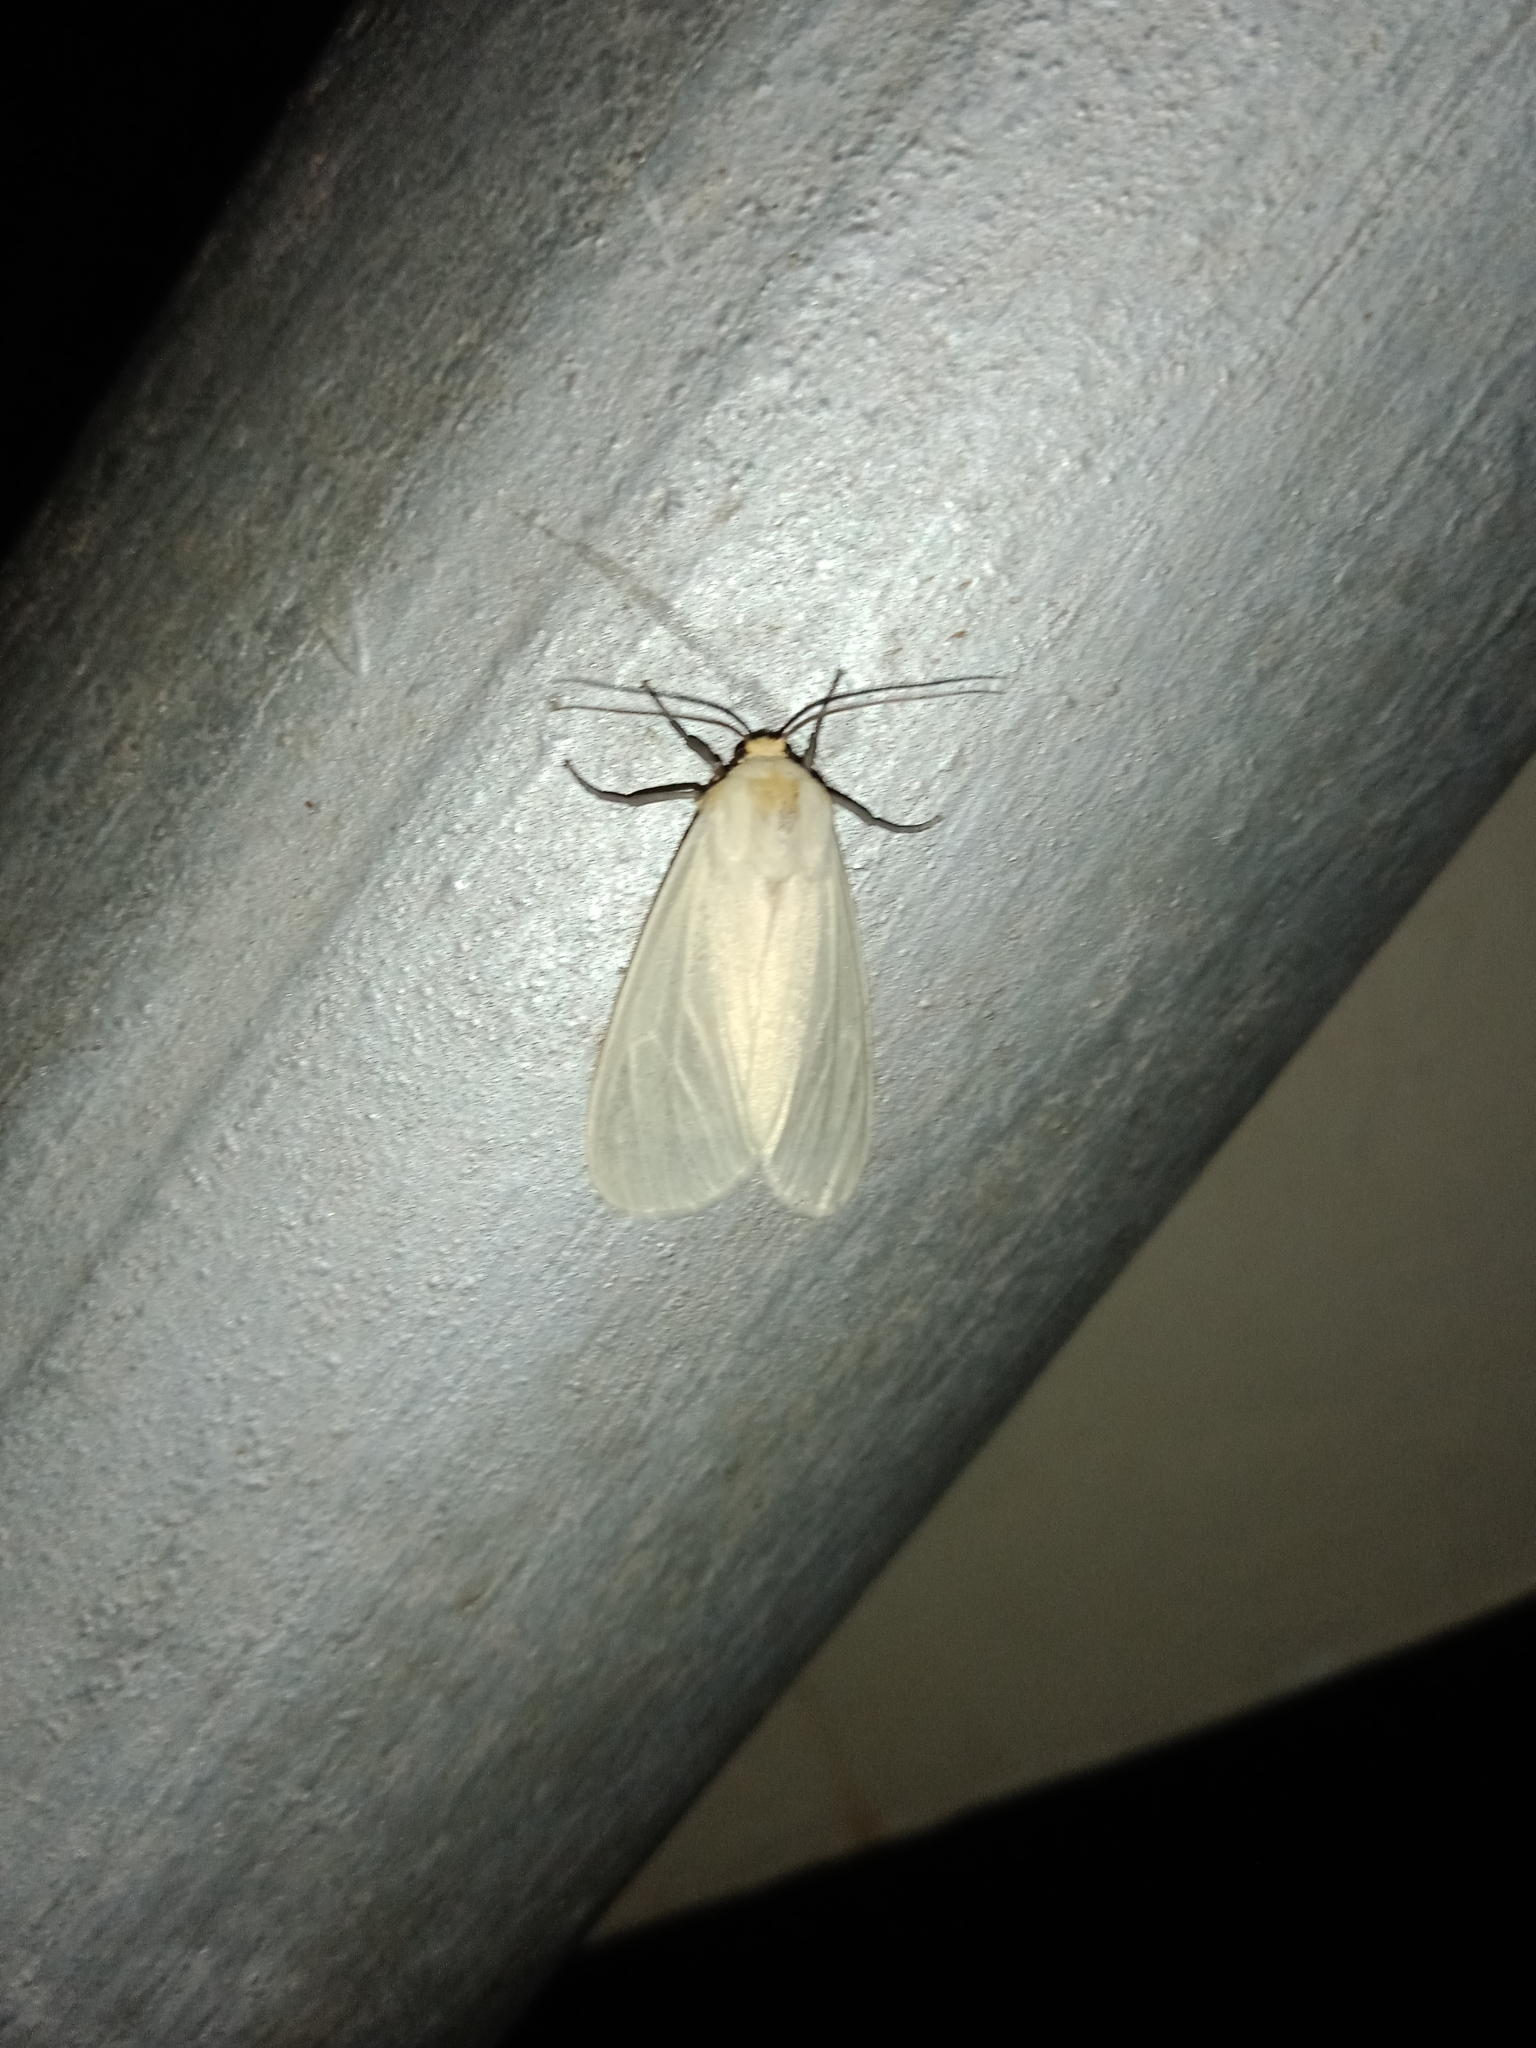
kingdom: Animalia
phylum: Arthropoda
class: Insecta
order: Lepidoptera
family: Erebidae
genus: Pareuchaetes
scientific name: Pareuchaetes pseudoinsulata
